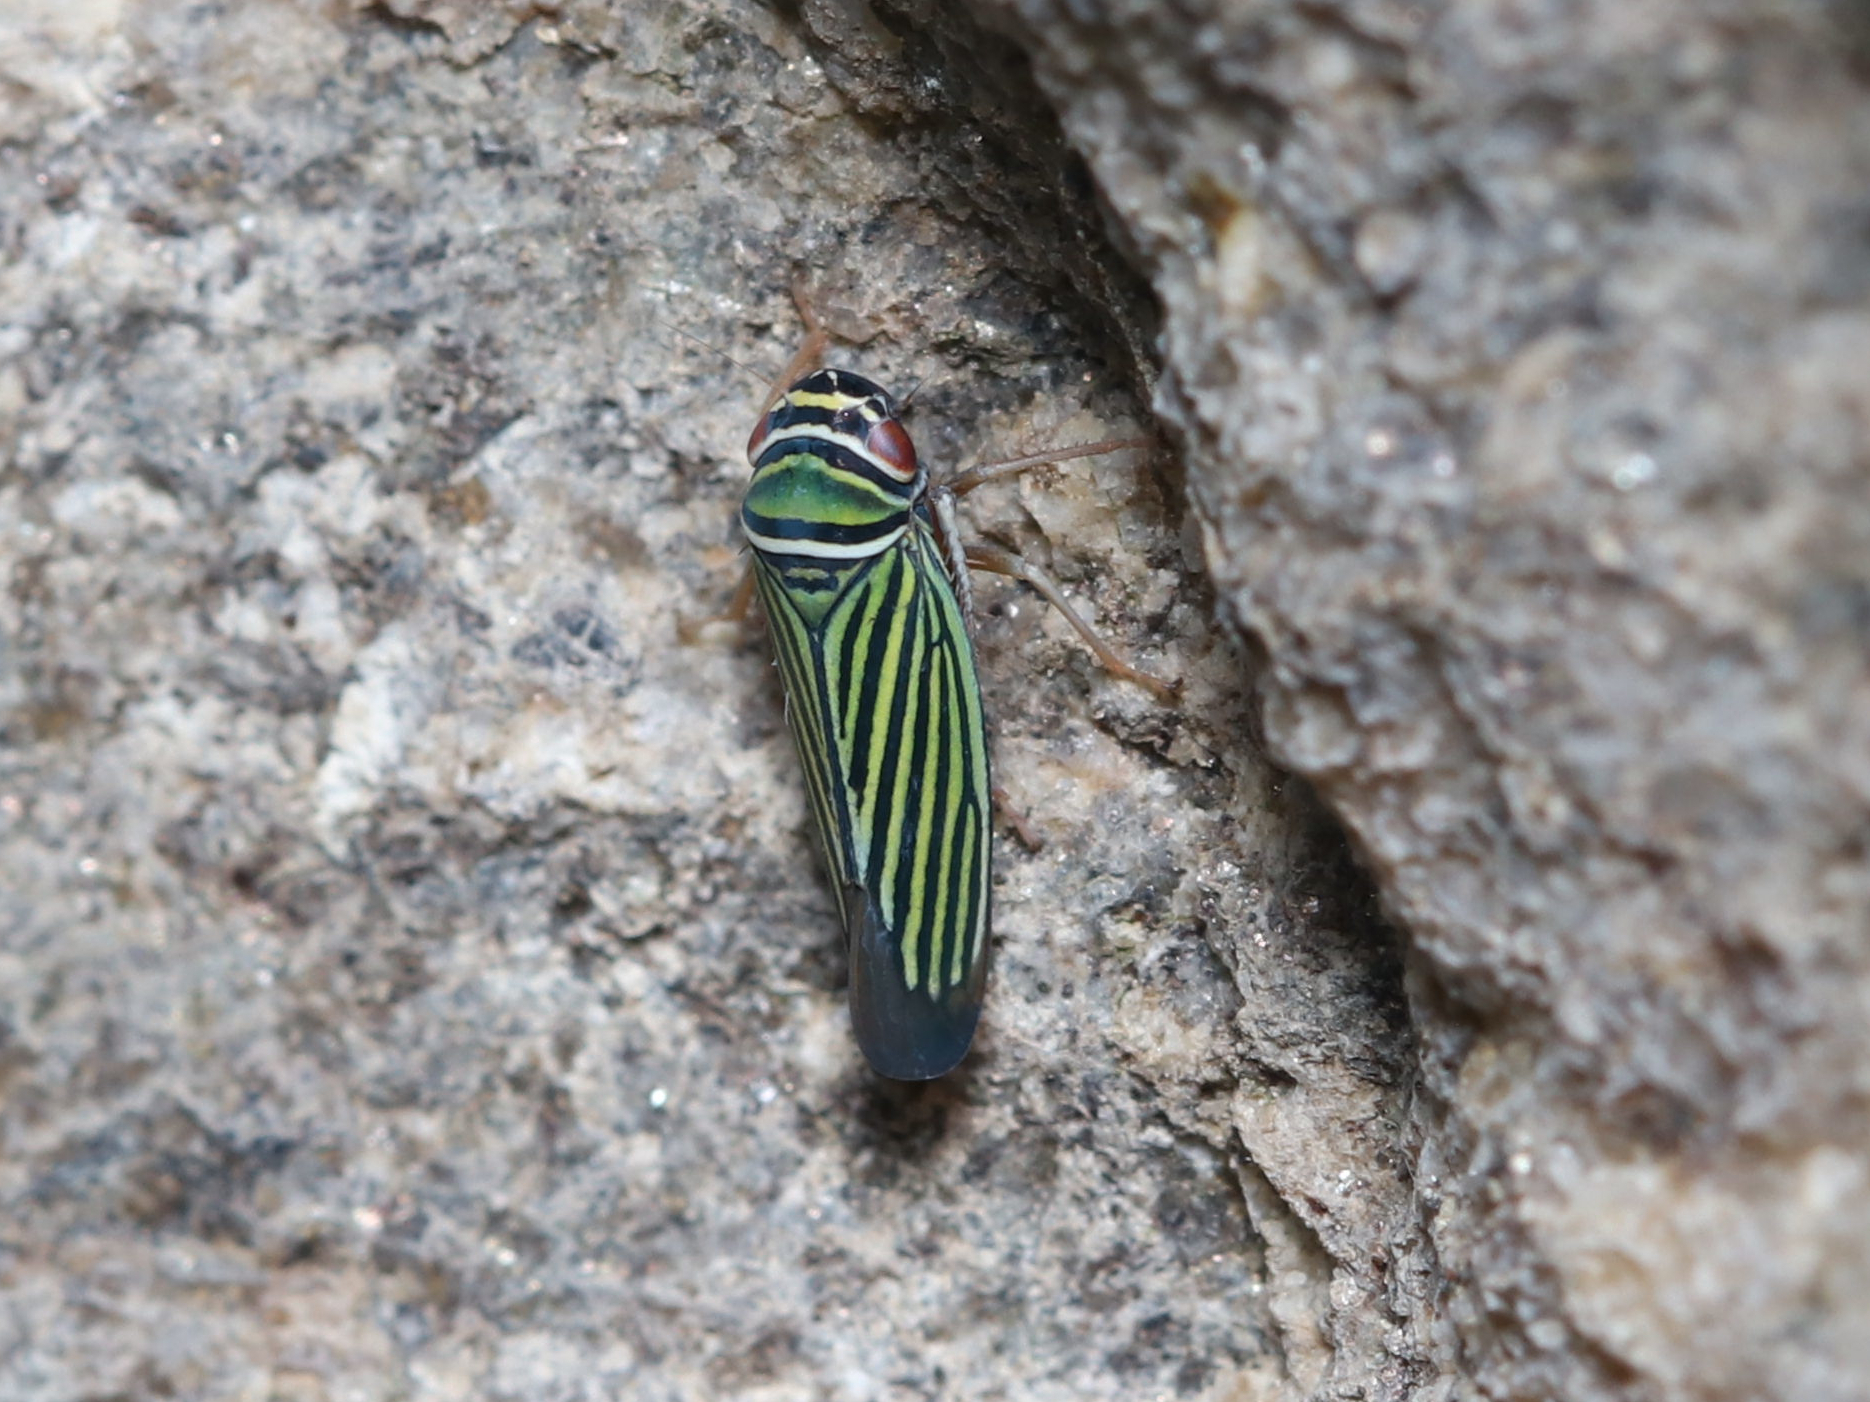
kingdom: Animalia
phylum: Arthropoda
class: Insecta
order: Hemiptera
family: Cicadellidae
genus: Tylozygus
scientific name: Tylozygus bifidus
